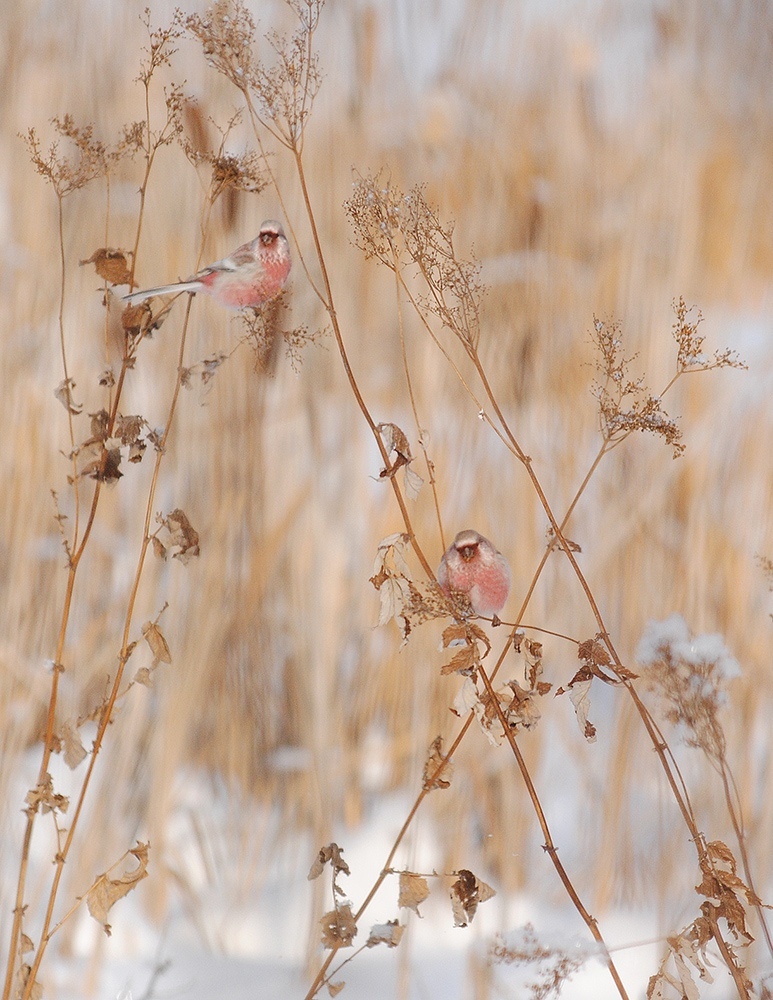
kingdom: Animalia
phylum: Chordata
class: Aves
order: Passeriformes
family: Fringillidae
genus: Carpodacus
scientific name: Carpodacus sibiricus
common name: Long-tailed rosefinch
